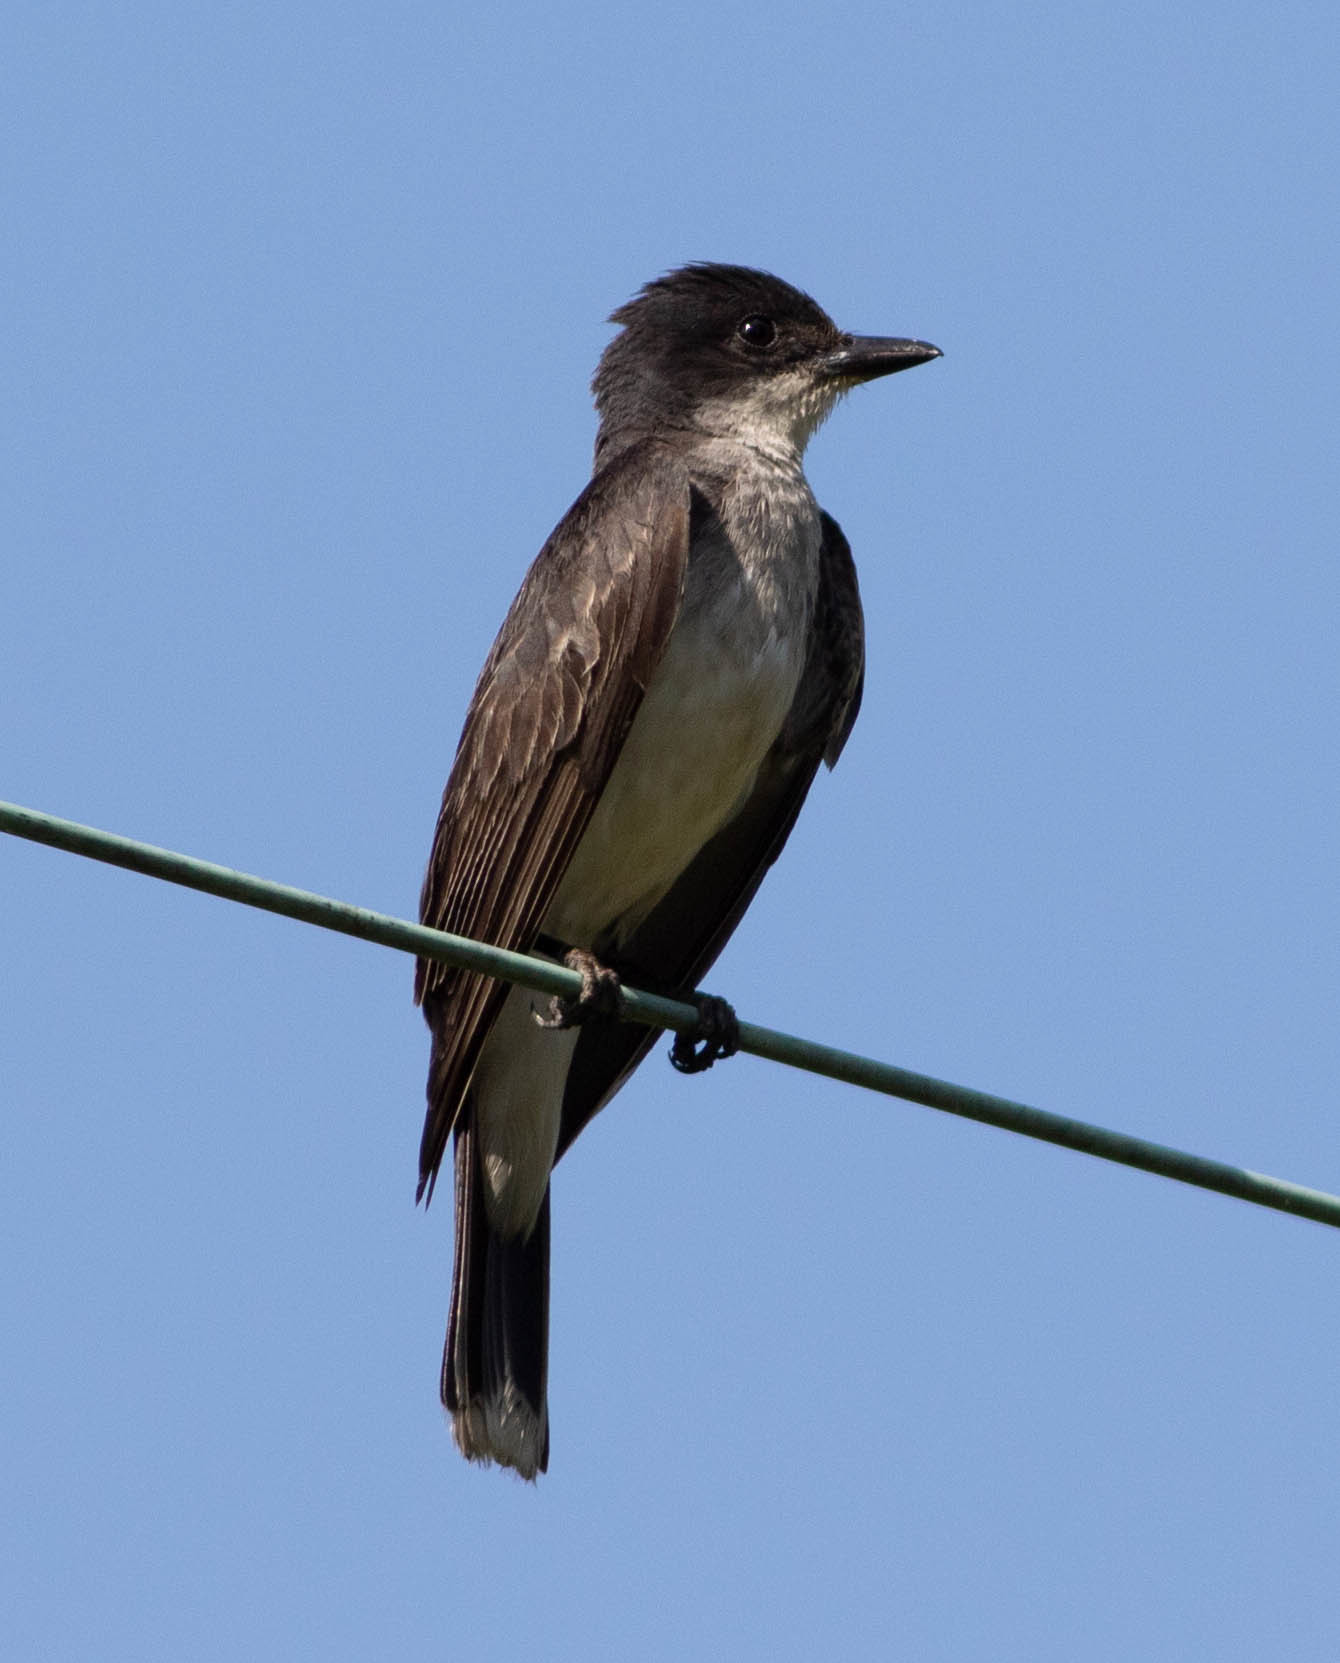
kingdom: Animalia
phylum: Chordata
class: Aves
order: Passeriformes
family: Tyrannidae
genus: Tyrannus
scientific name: Tyrannus tyrannus
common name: Eastern kingbird
